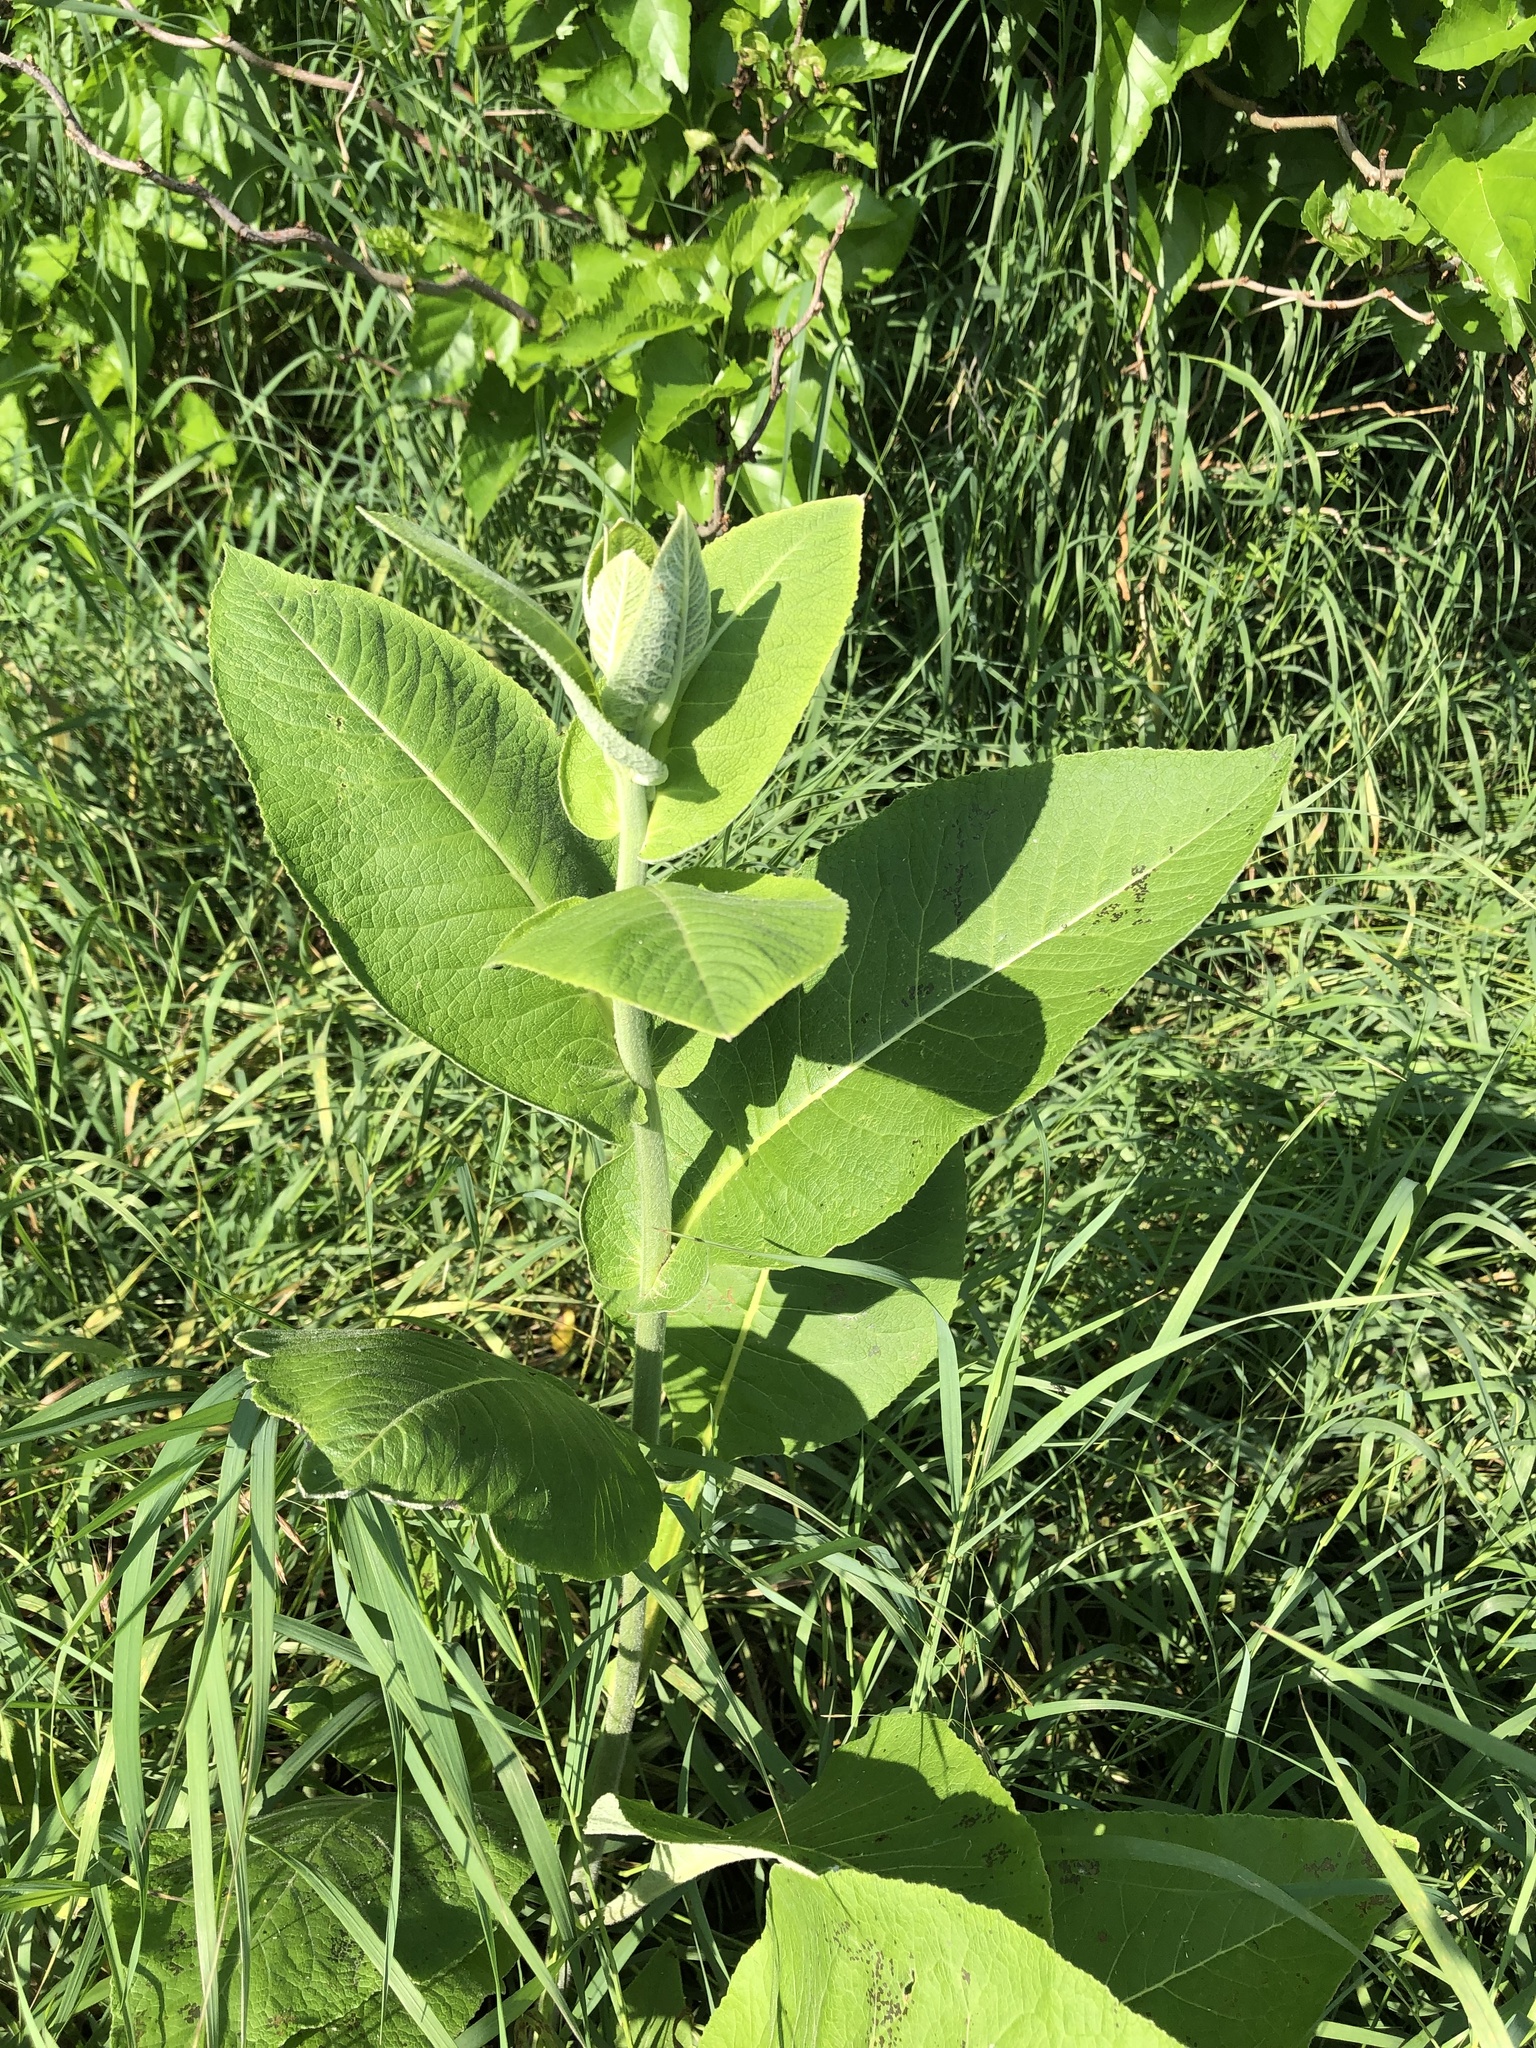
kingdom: Plantae
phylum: Tracheophyta
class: Magnoliopsida
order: Gentianales
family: Apocynaceae
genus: Asclepias
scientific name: Asclepias syriaca
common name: Common milkweed
